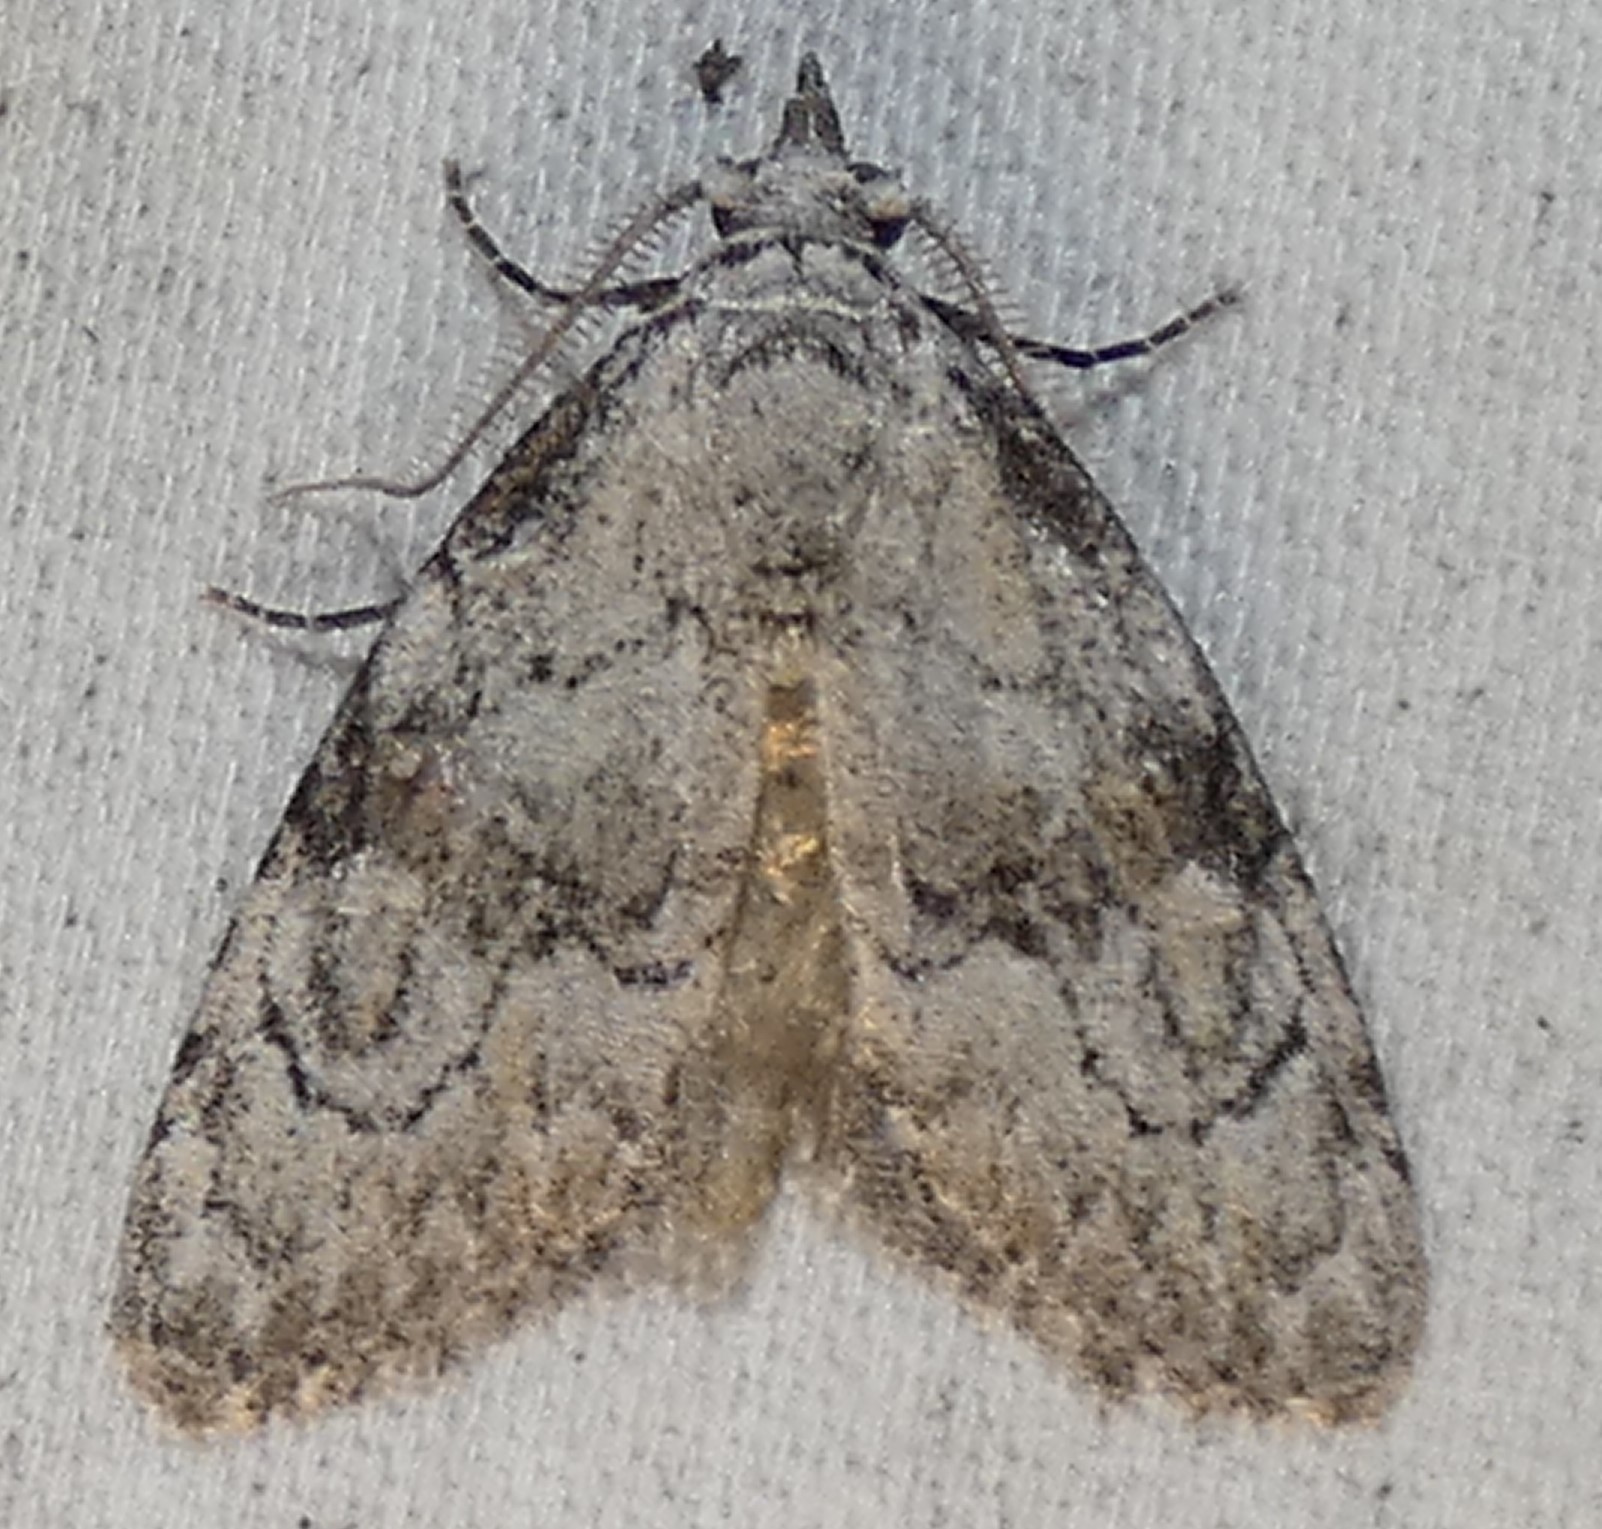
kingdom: Animalia
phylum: Arthropoda
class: Insecta
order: Lepidoptera
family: Nolidae
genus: Meganola
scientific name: Meganola minuscula
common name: Confused meganola moth
